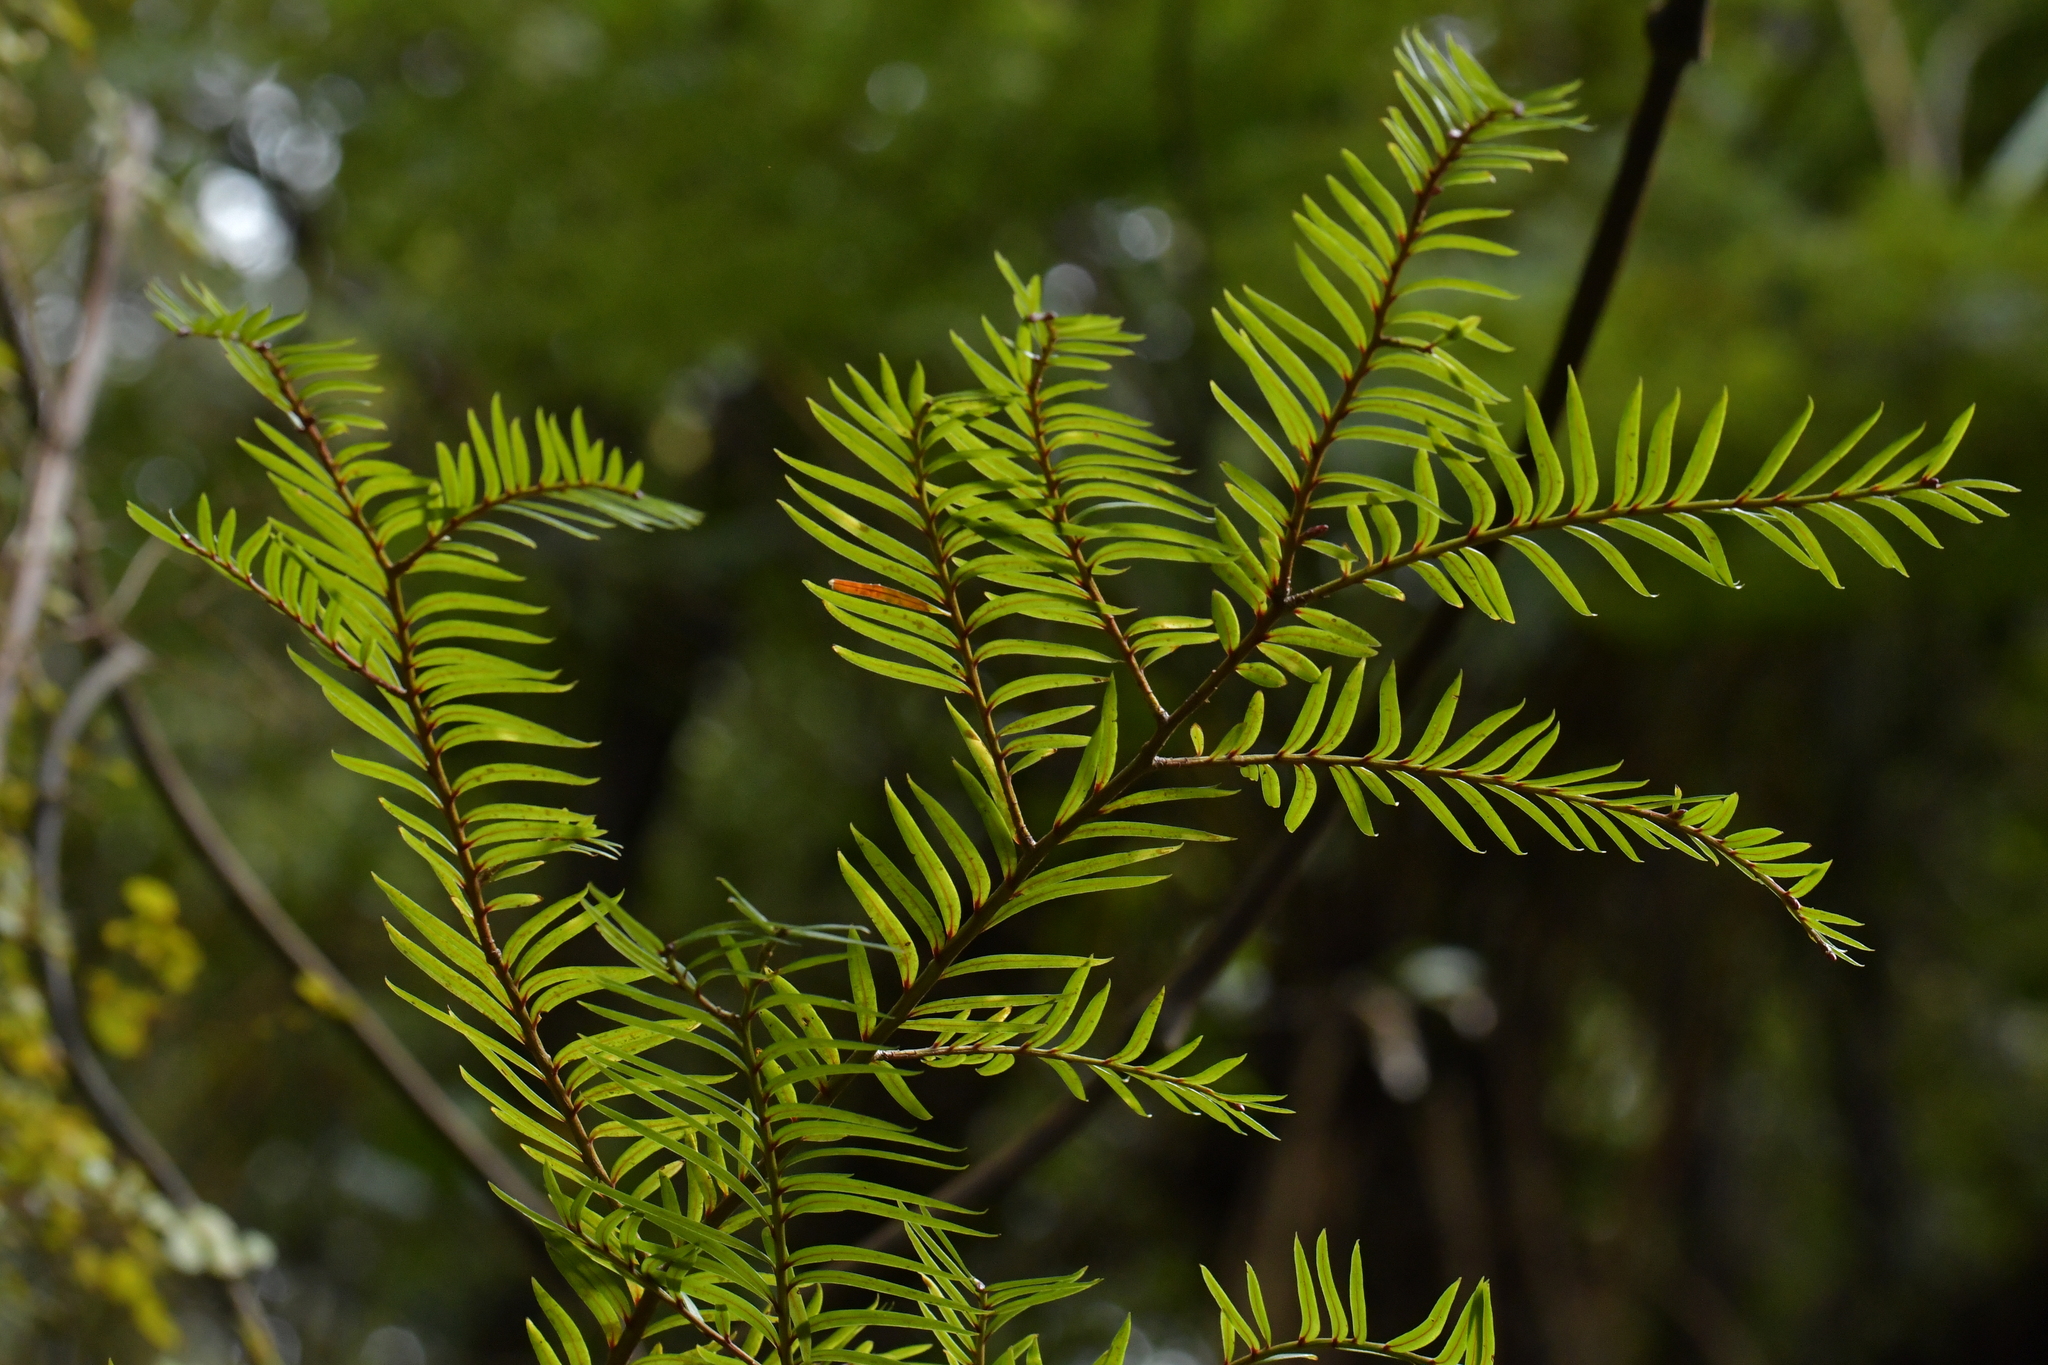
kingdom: Plantae
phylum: Tracheophyta
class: Pinopsida
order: Pinales
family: Podocarpaceae
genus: Prumnopitys
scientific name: Prumnopitys ferruginea
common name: Brown pine
